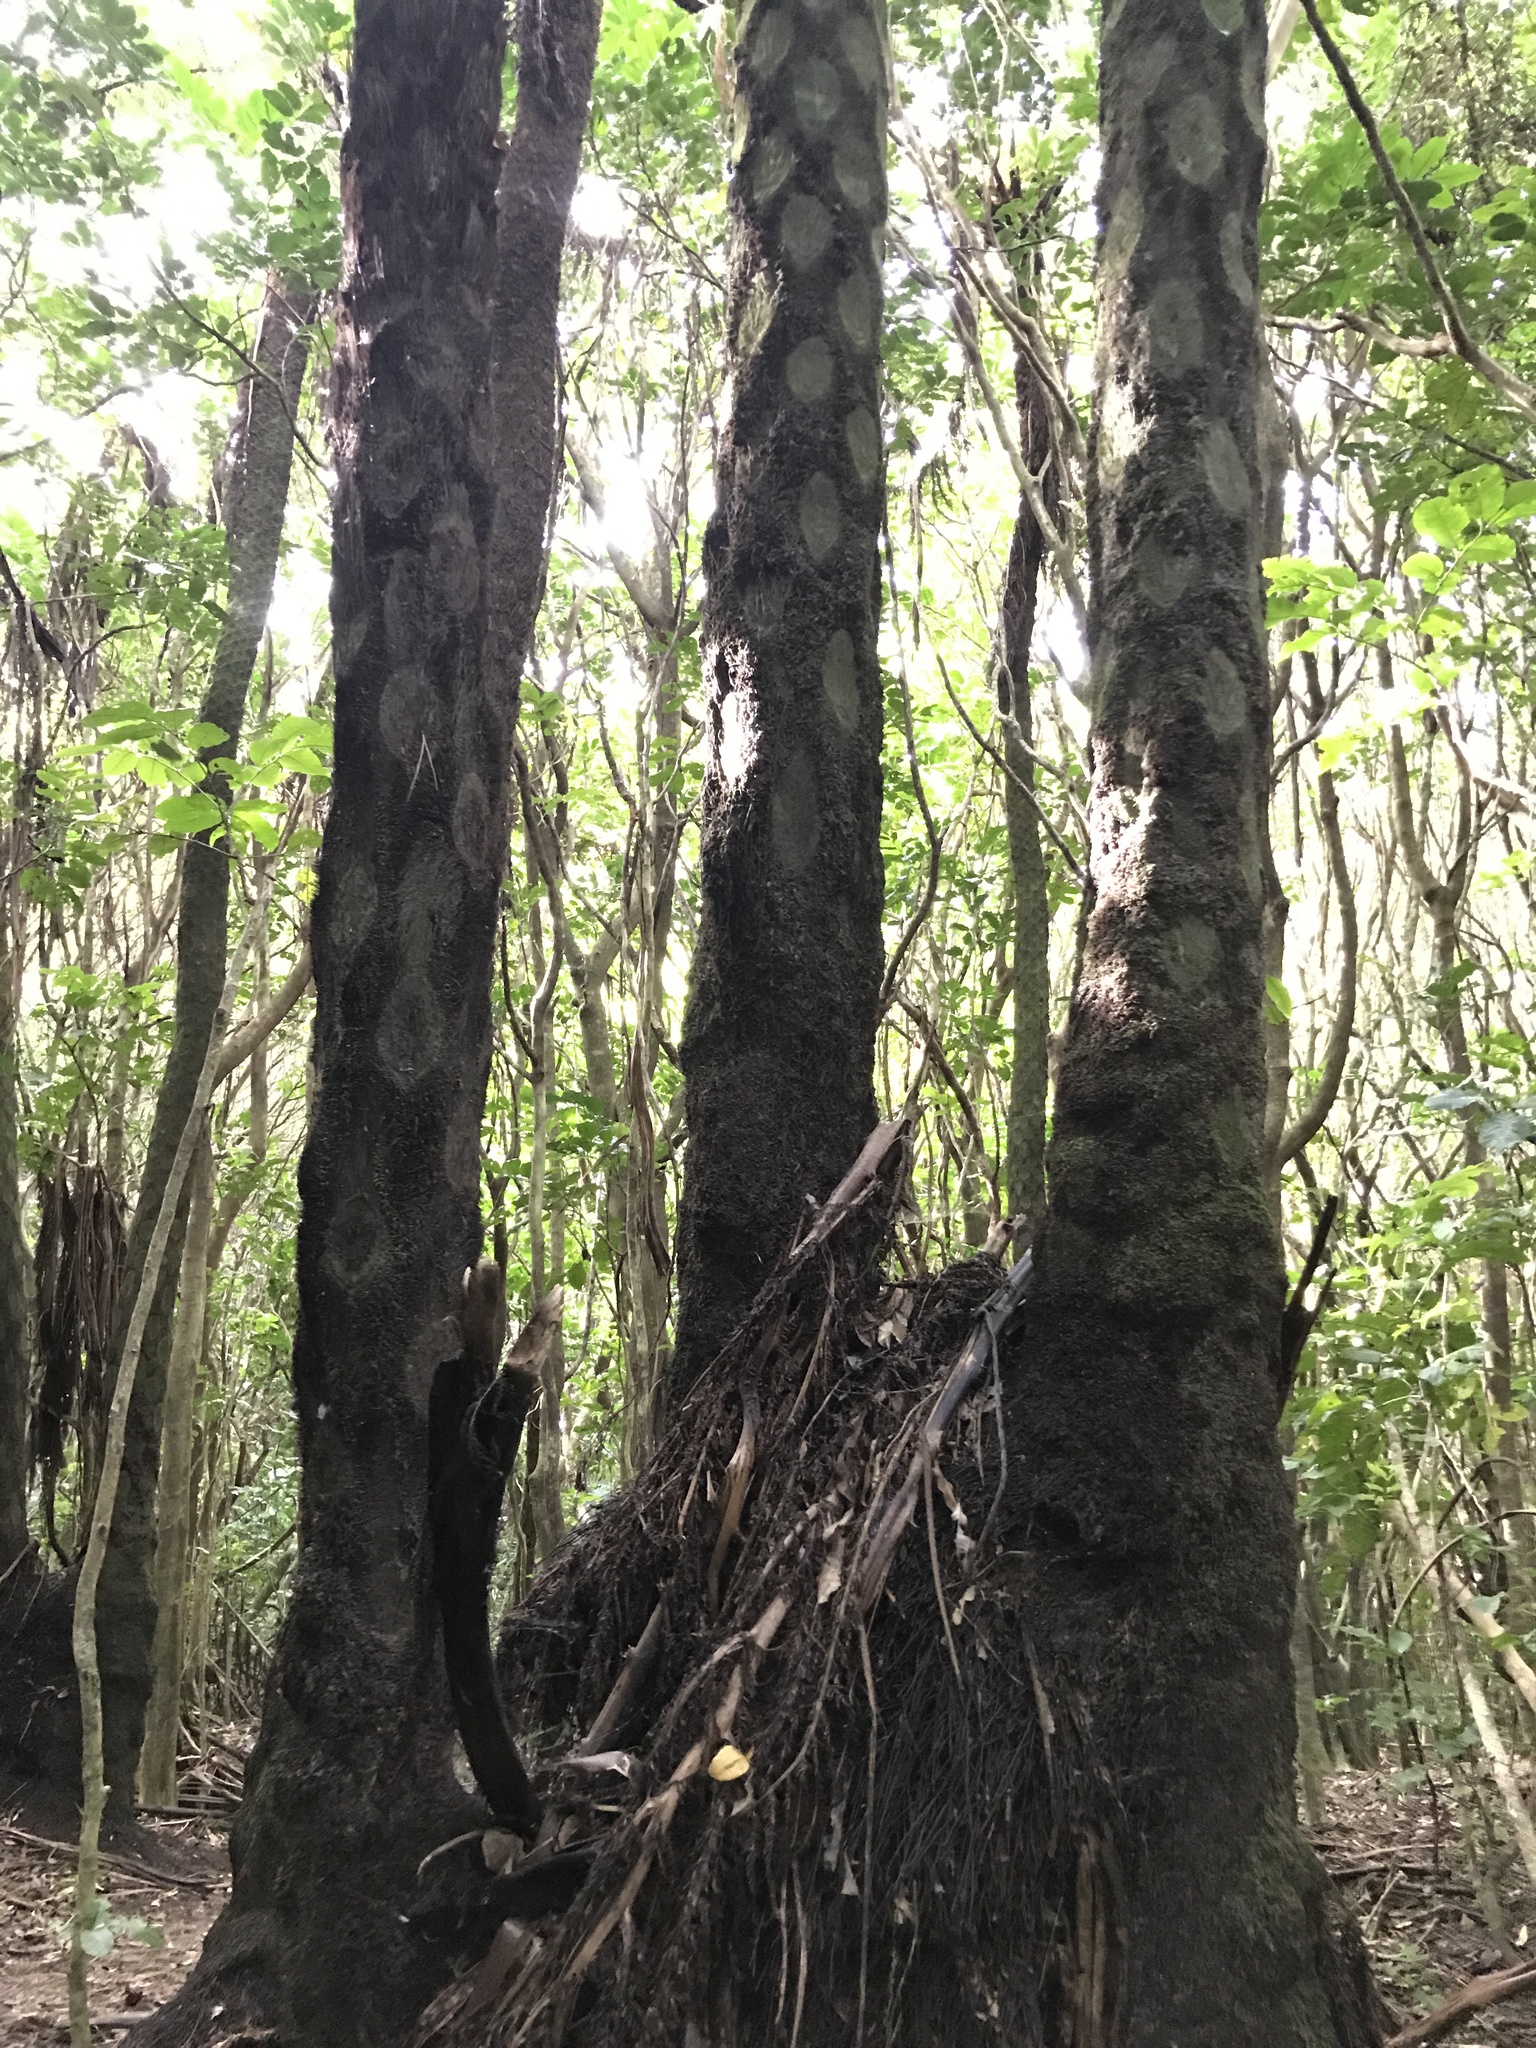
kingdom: Plantae
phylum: Tracheophyta
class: Polypodiopsida
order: Cyatheales
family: Cyatheaceae
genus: Sphaeropteris
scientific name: Sphaeropteris medullaris
